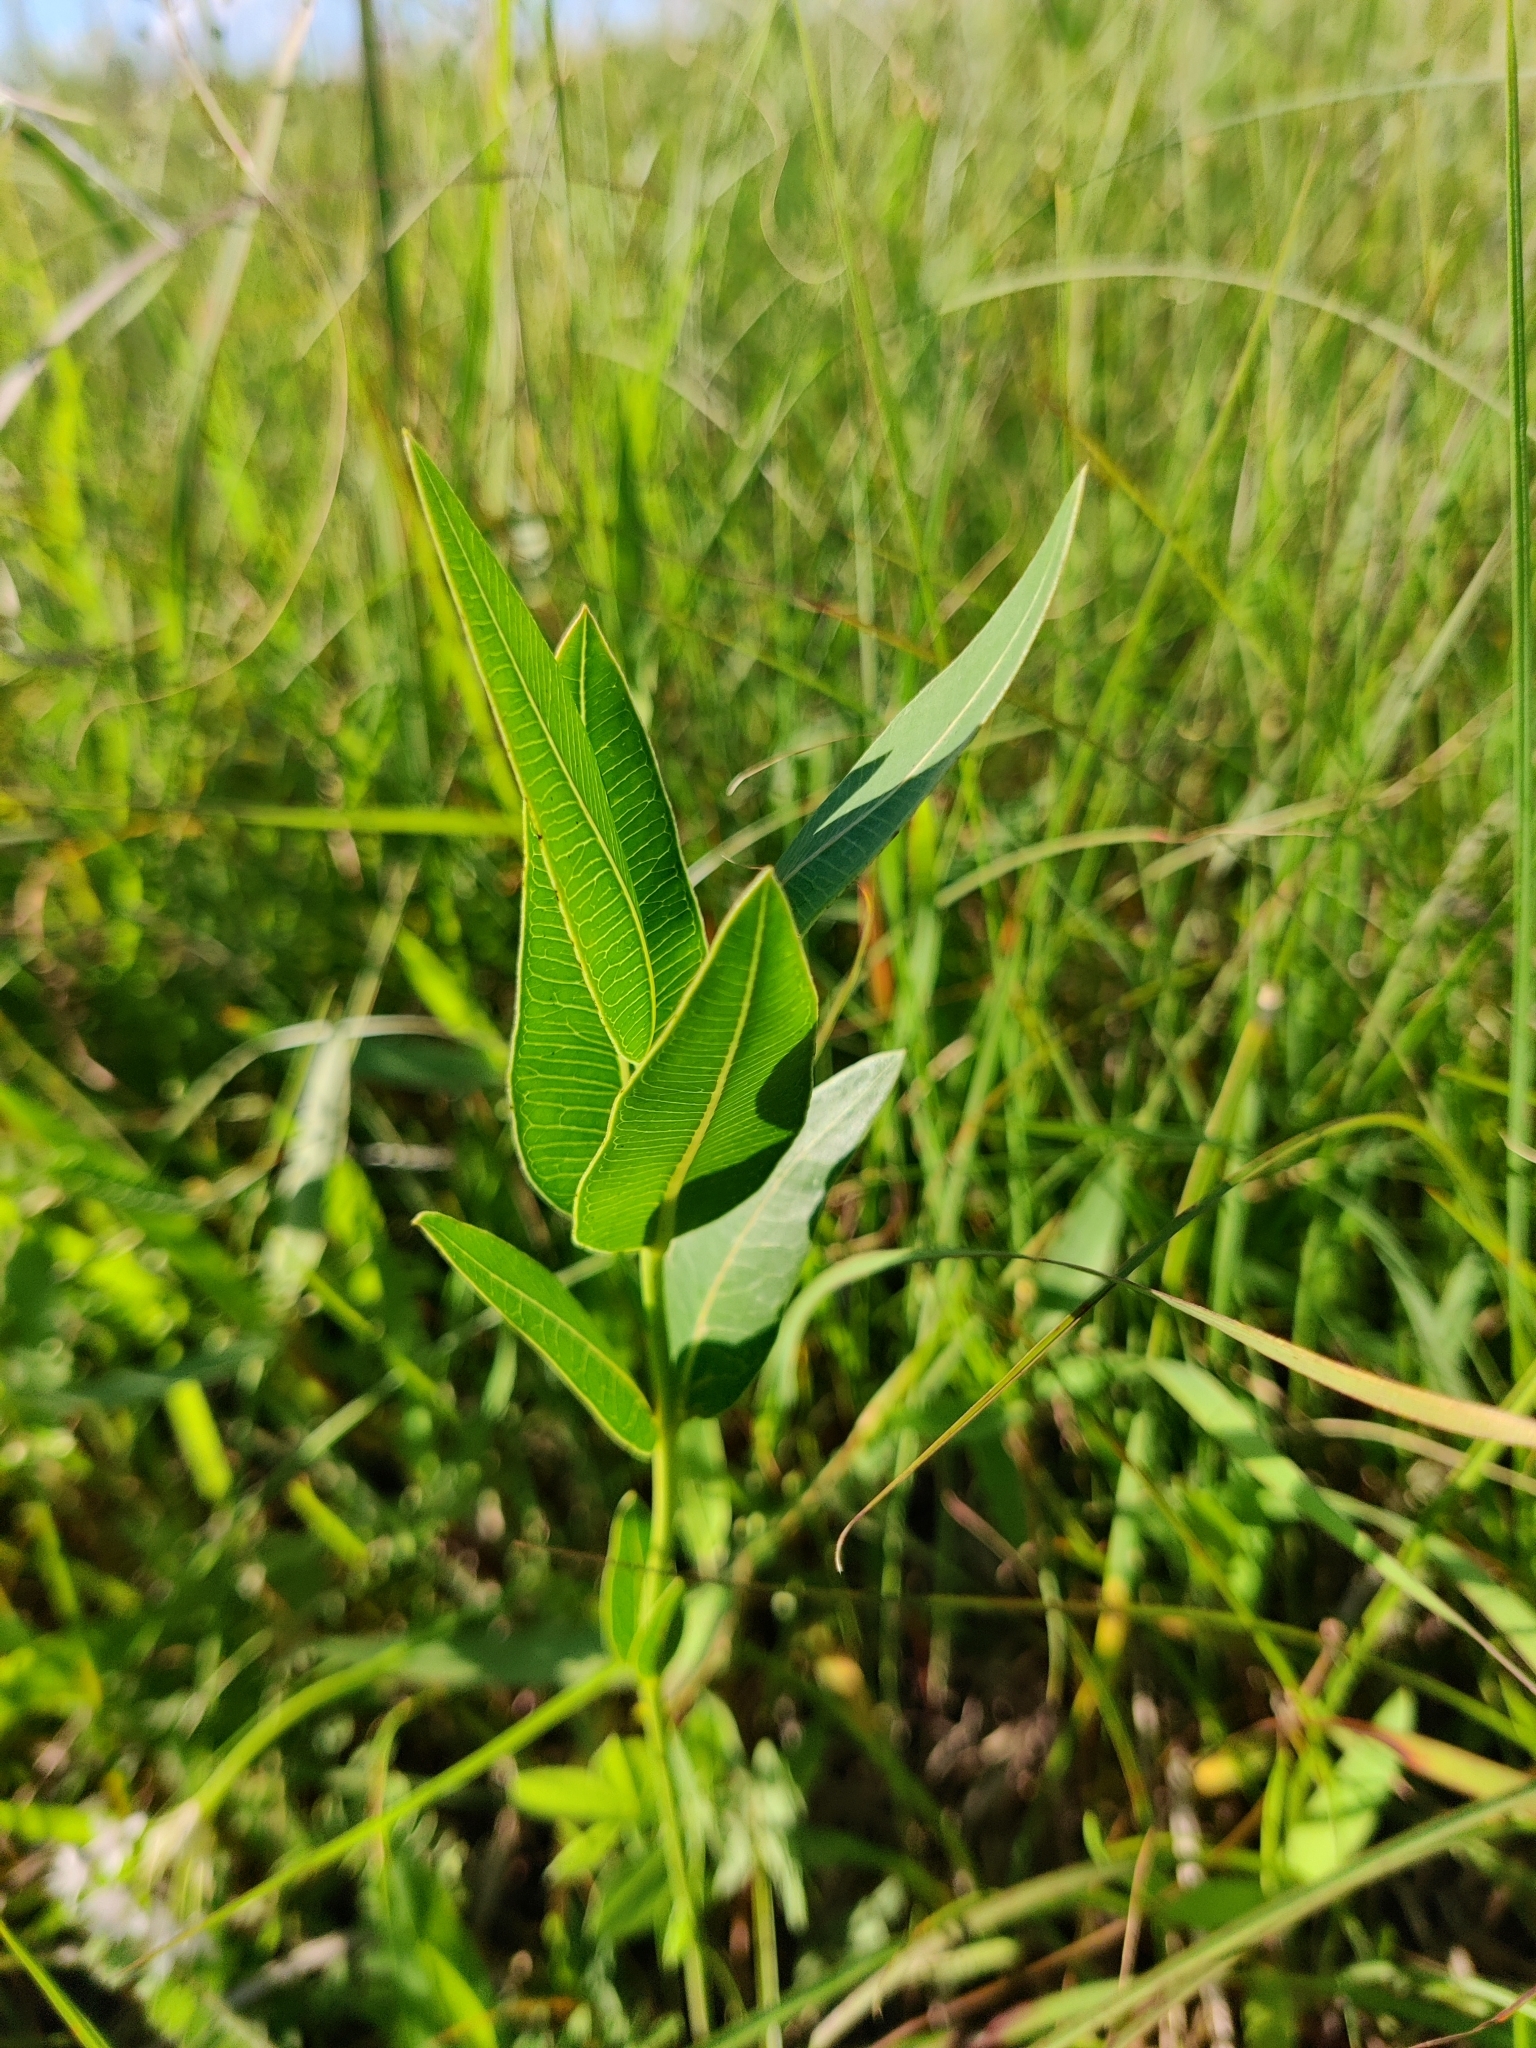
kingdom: Plantae
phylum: Tracheophyta
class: Magnoliopsida
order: Gentianales
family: Apocynaceae
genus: Asclepias
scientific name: Asclepias meadii
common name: Mead's milkweed
